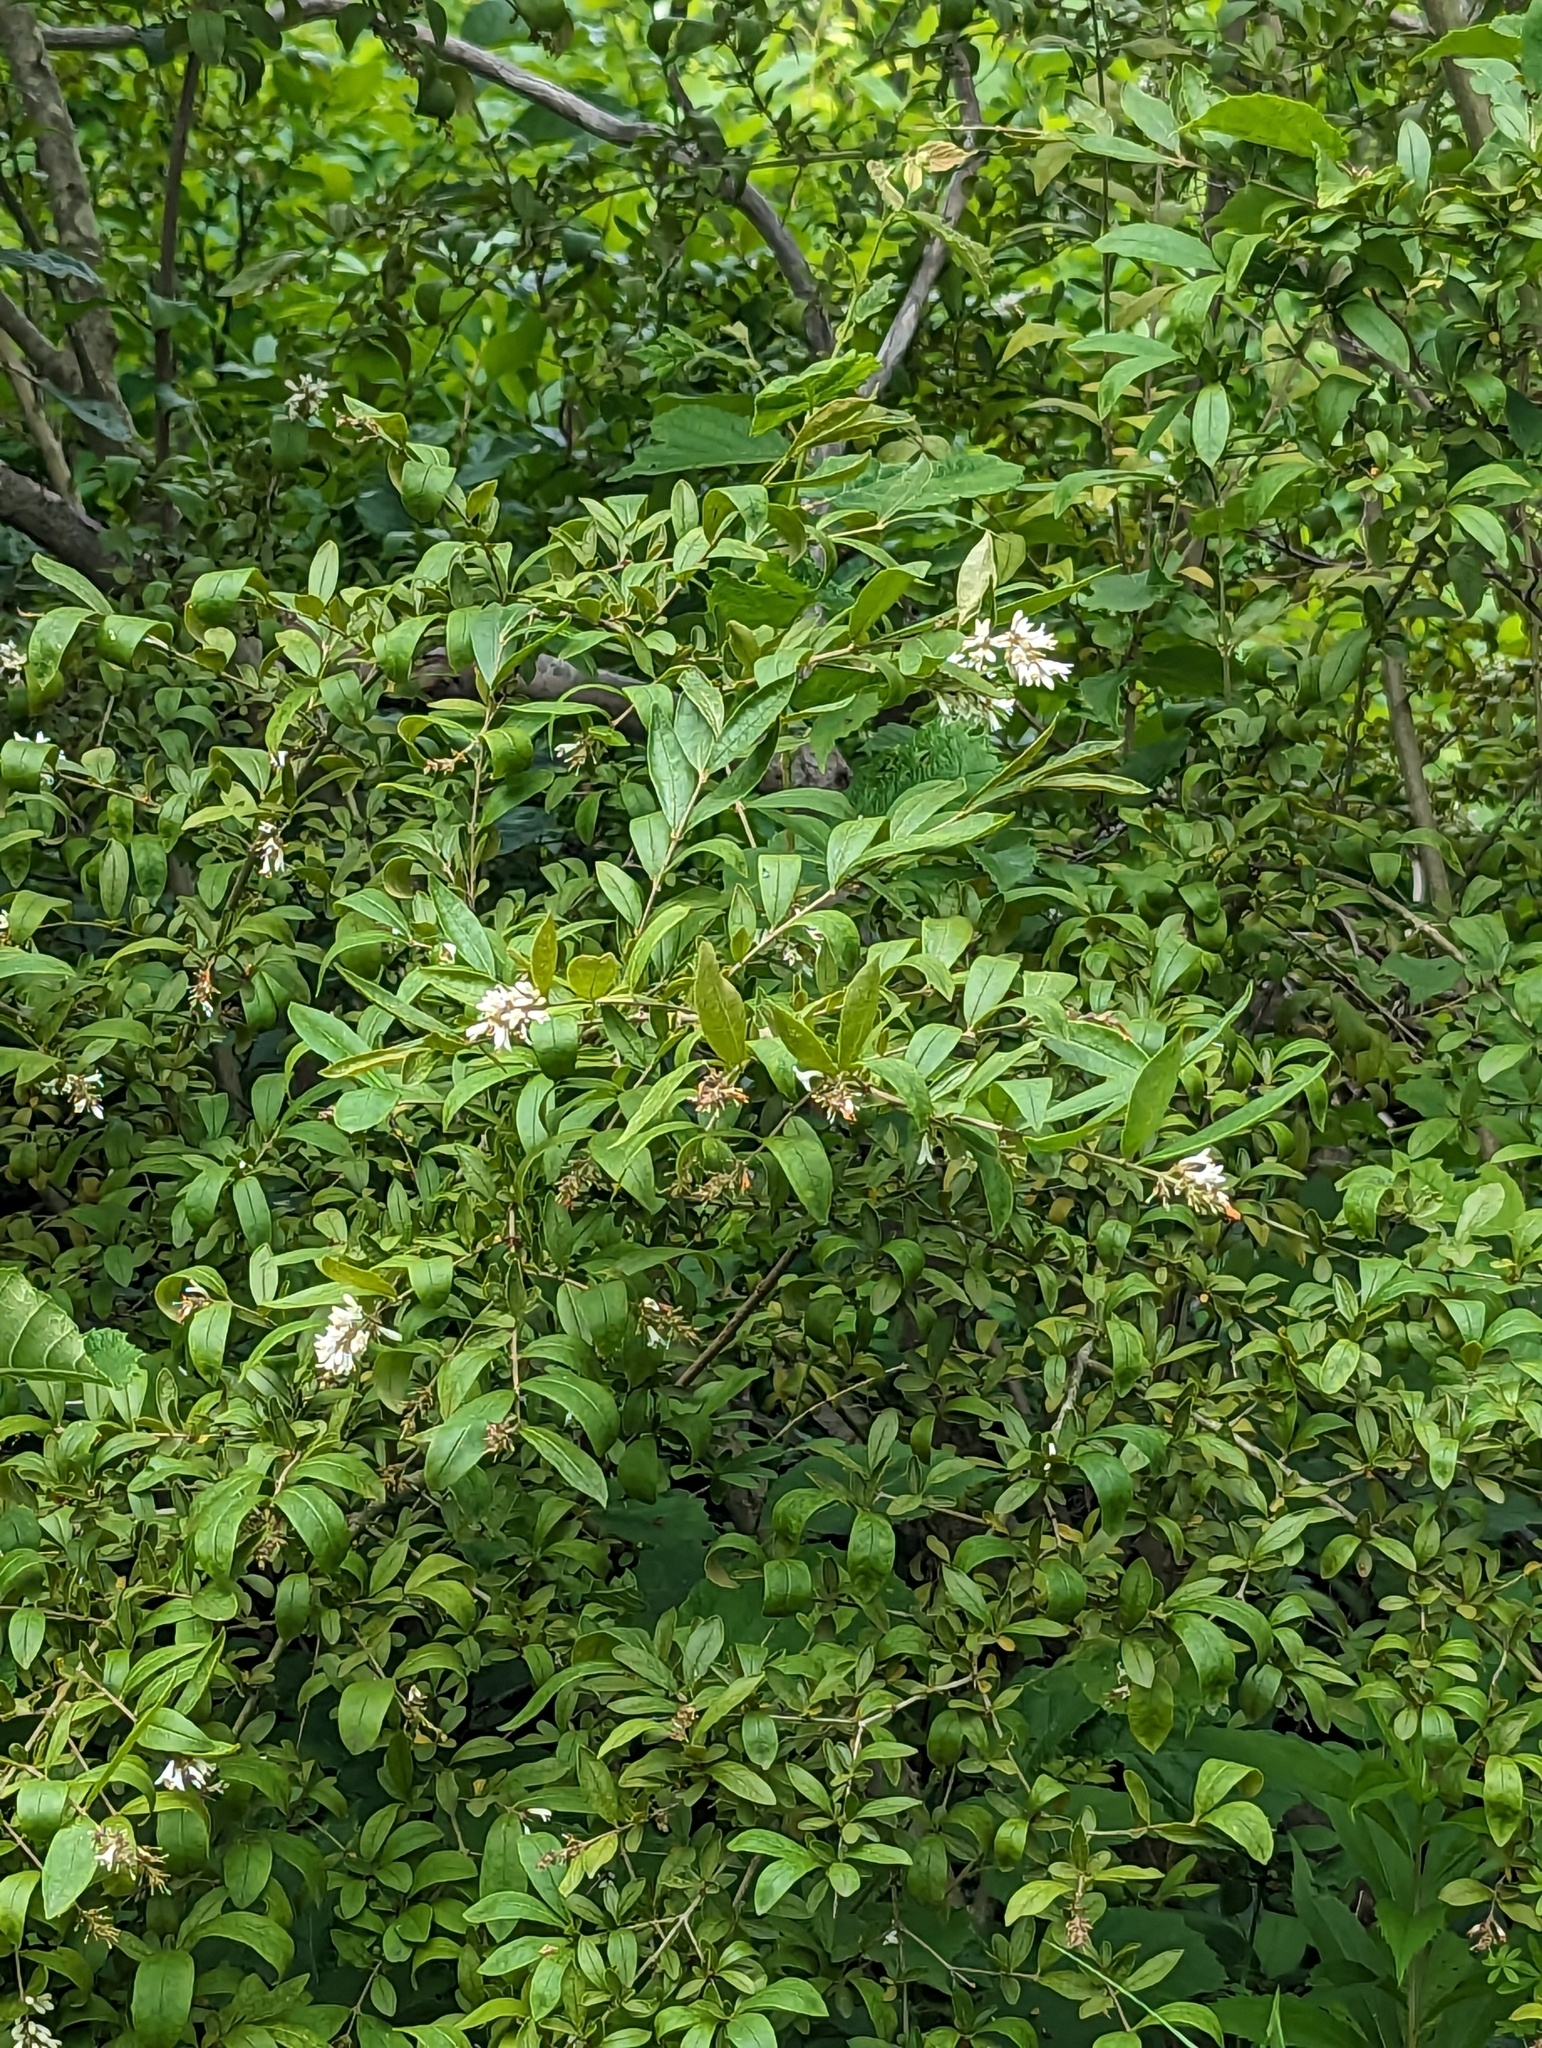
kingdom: Plantae
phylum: Tracheophyta
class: Magnoliopsida
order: Lamiales
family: Oleaceae
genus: Ligustrum
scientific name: Ligustrum obtusifolium
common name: Border privet
